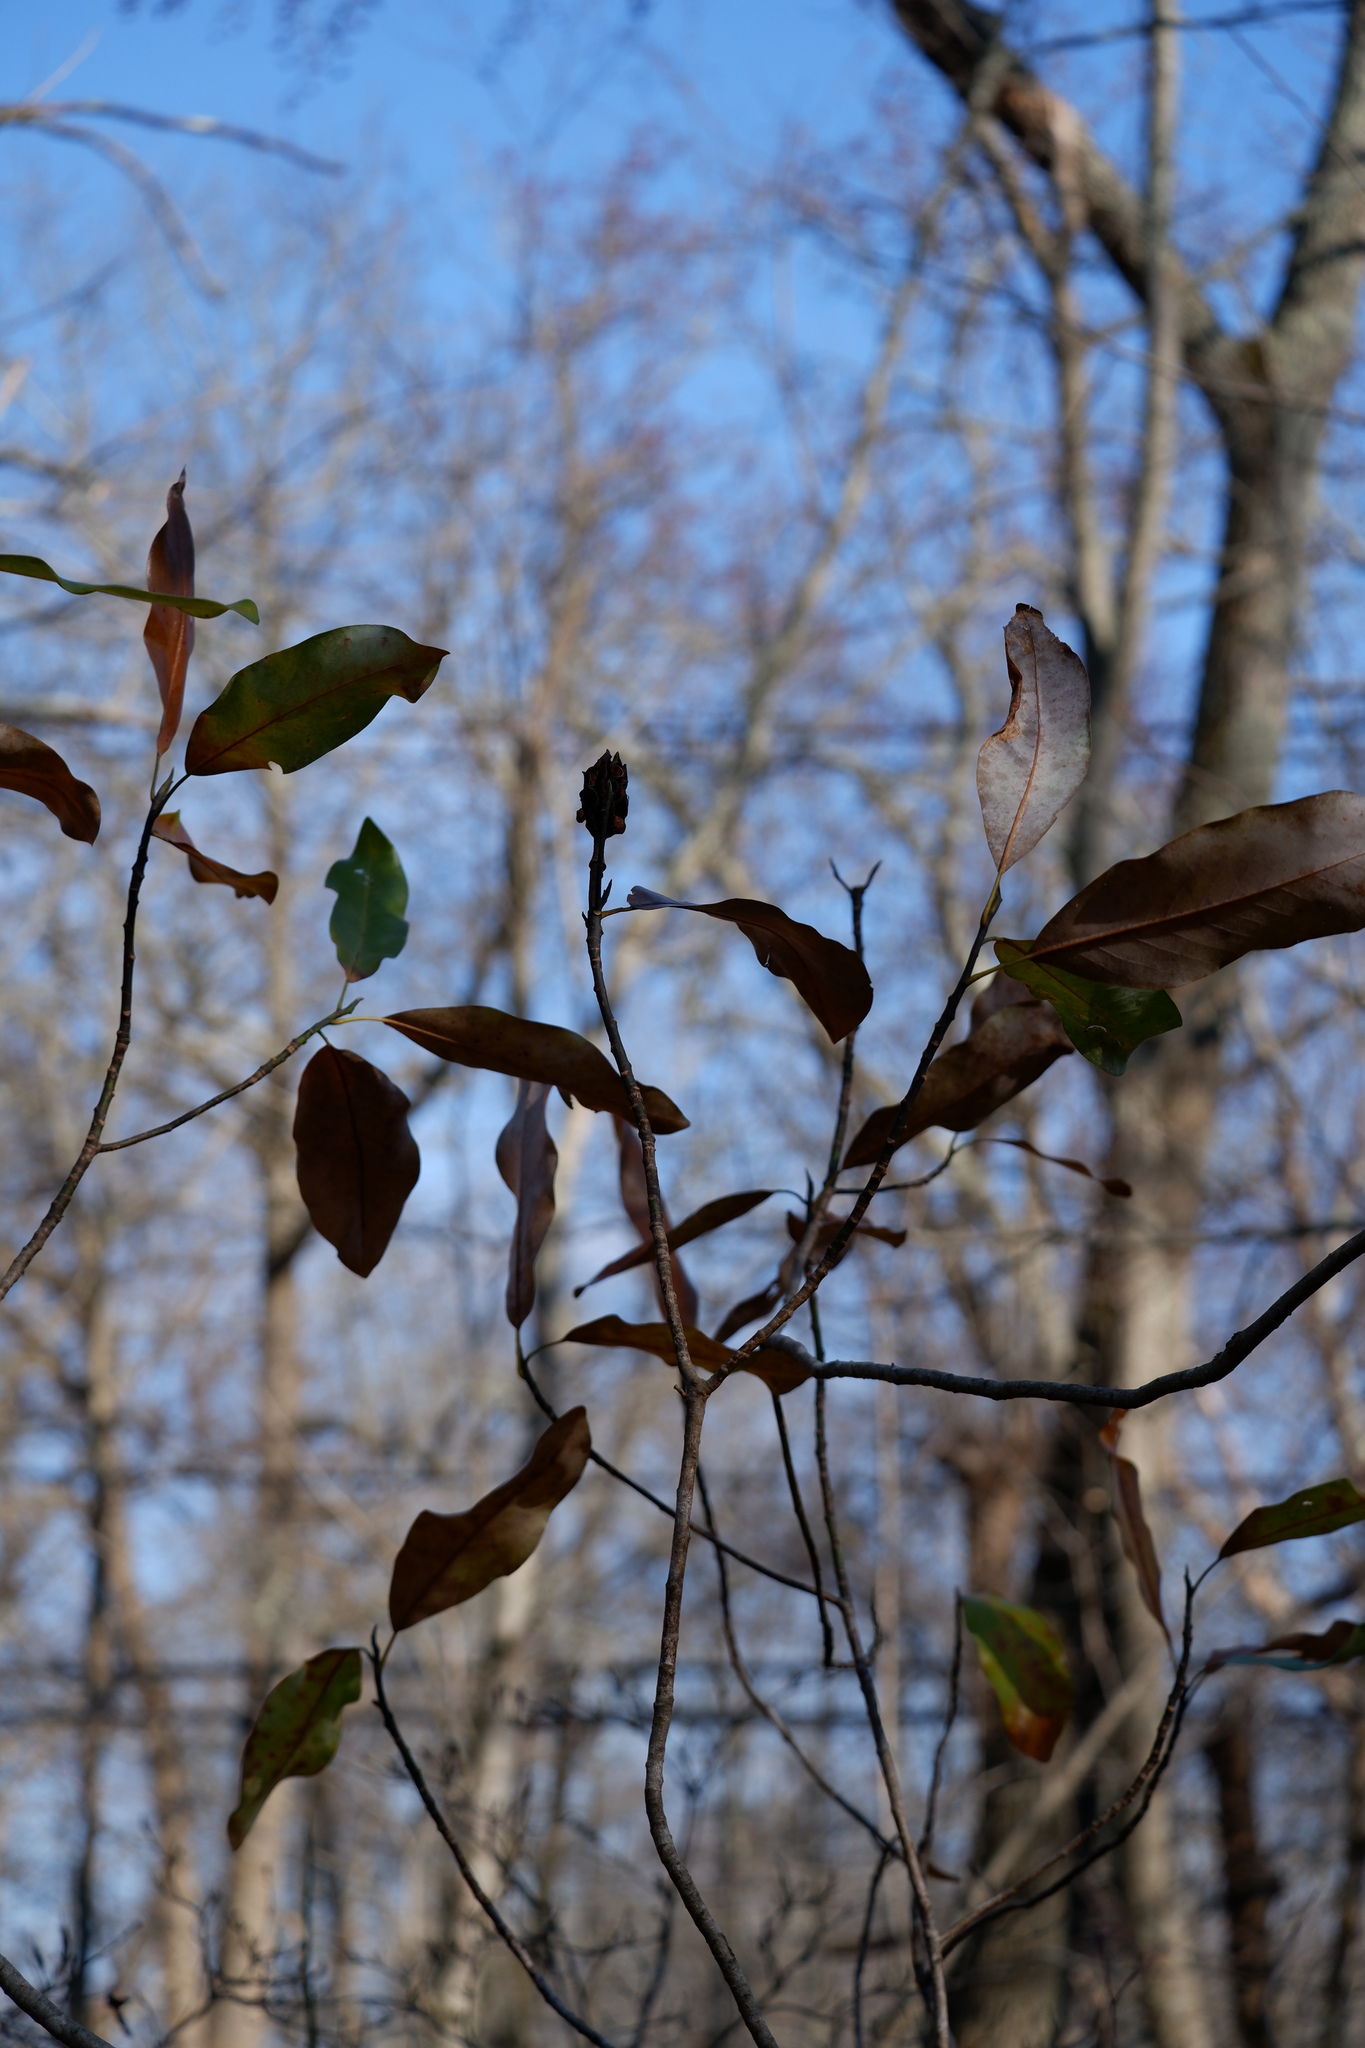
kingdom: Plantae
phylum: Tracheophyta
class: Magnoliopsida
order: Magnoliales
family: Magnoliaceae
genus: Magnolia
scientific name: Magnolia virginiana
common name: Swamp bay
